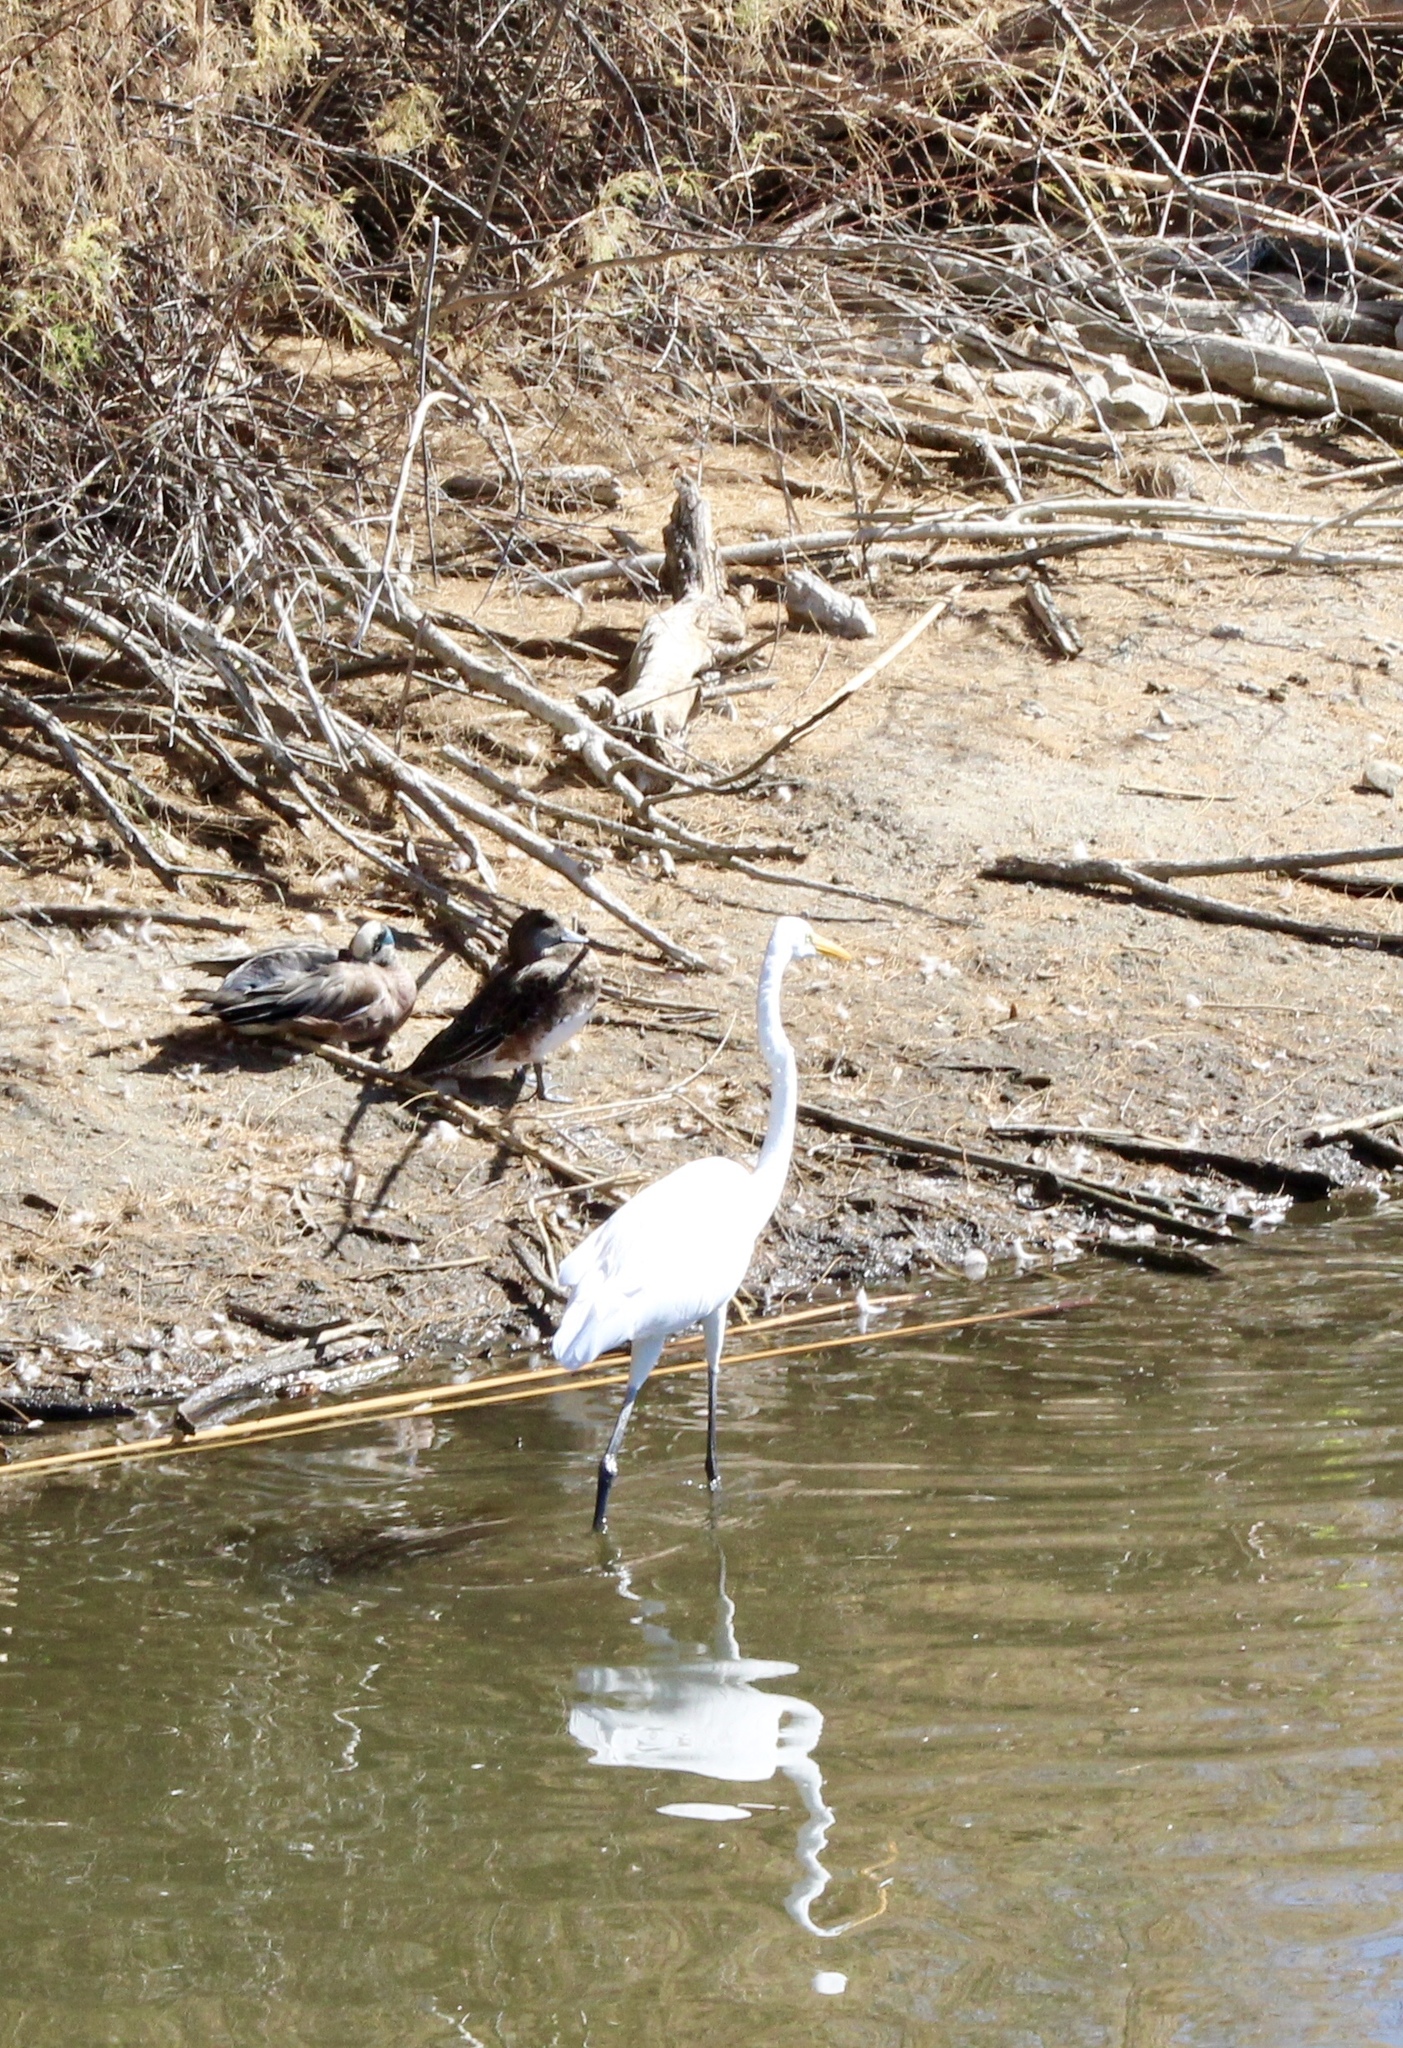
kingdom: Animalia
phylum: Chordata
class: Aves
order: Pelecaniformes
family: Ardeidae
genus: Ardea
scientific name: Ardea alba
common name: Great egret
